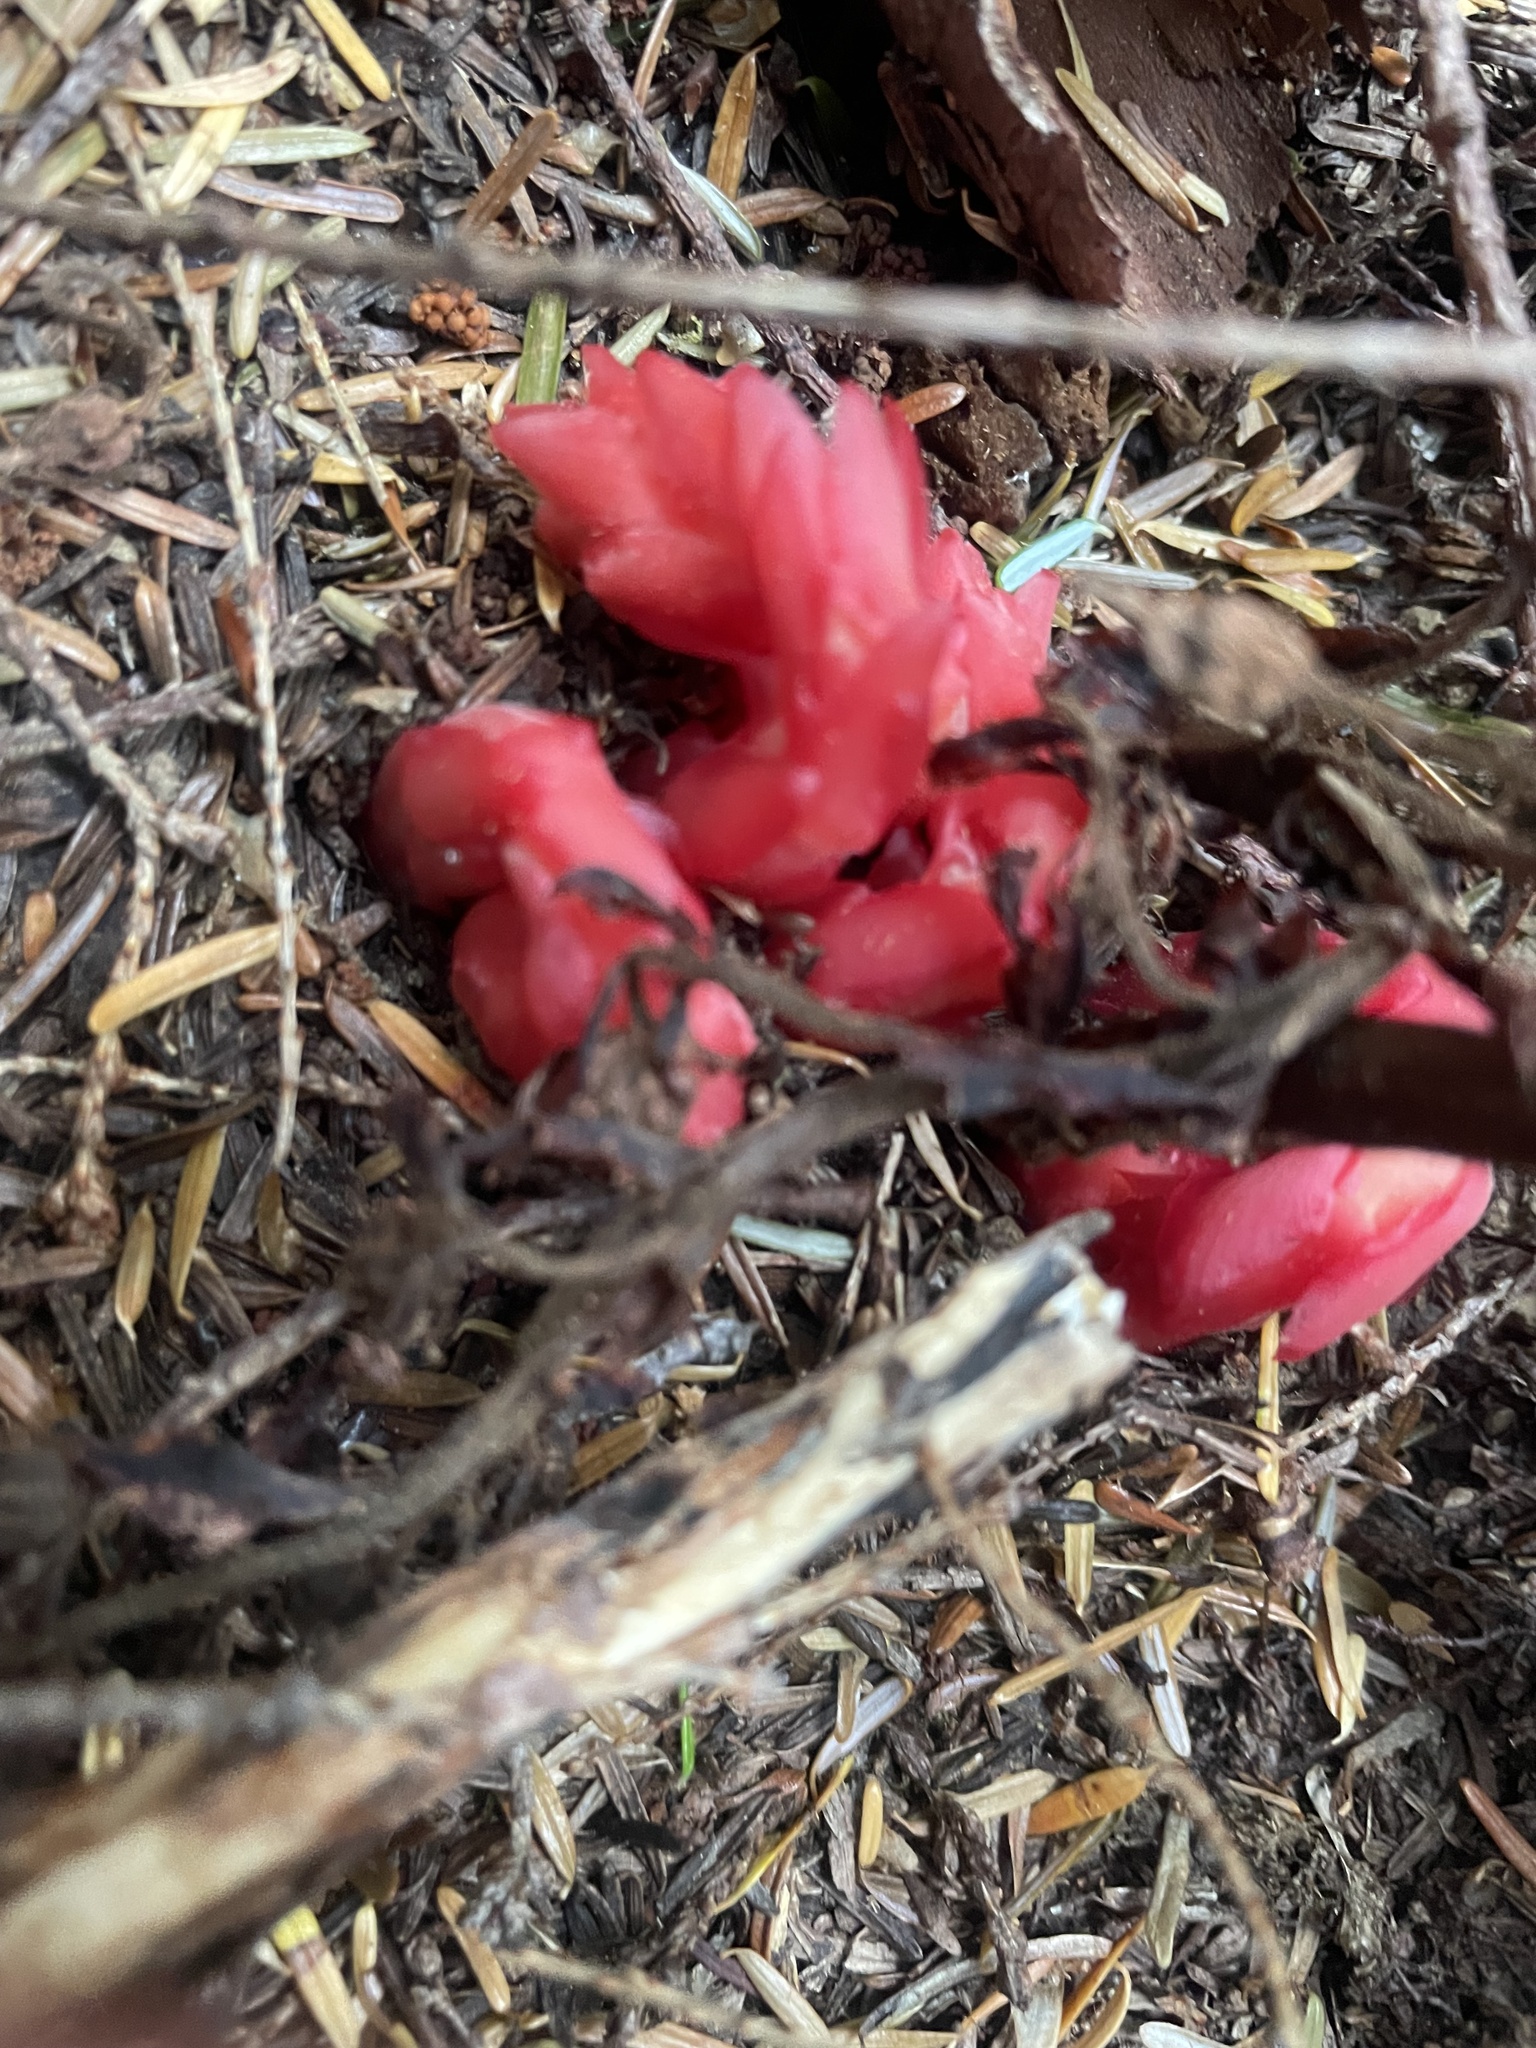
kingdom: Plantae
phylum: Tracheophyta
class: Magnoliopsida
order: Ericales
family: Ericaceae
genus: Hypopitys
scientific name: Hypopitys monotropa
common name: Yellow bird's-nest
